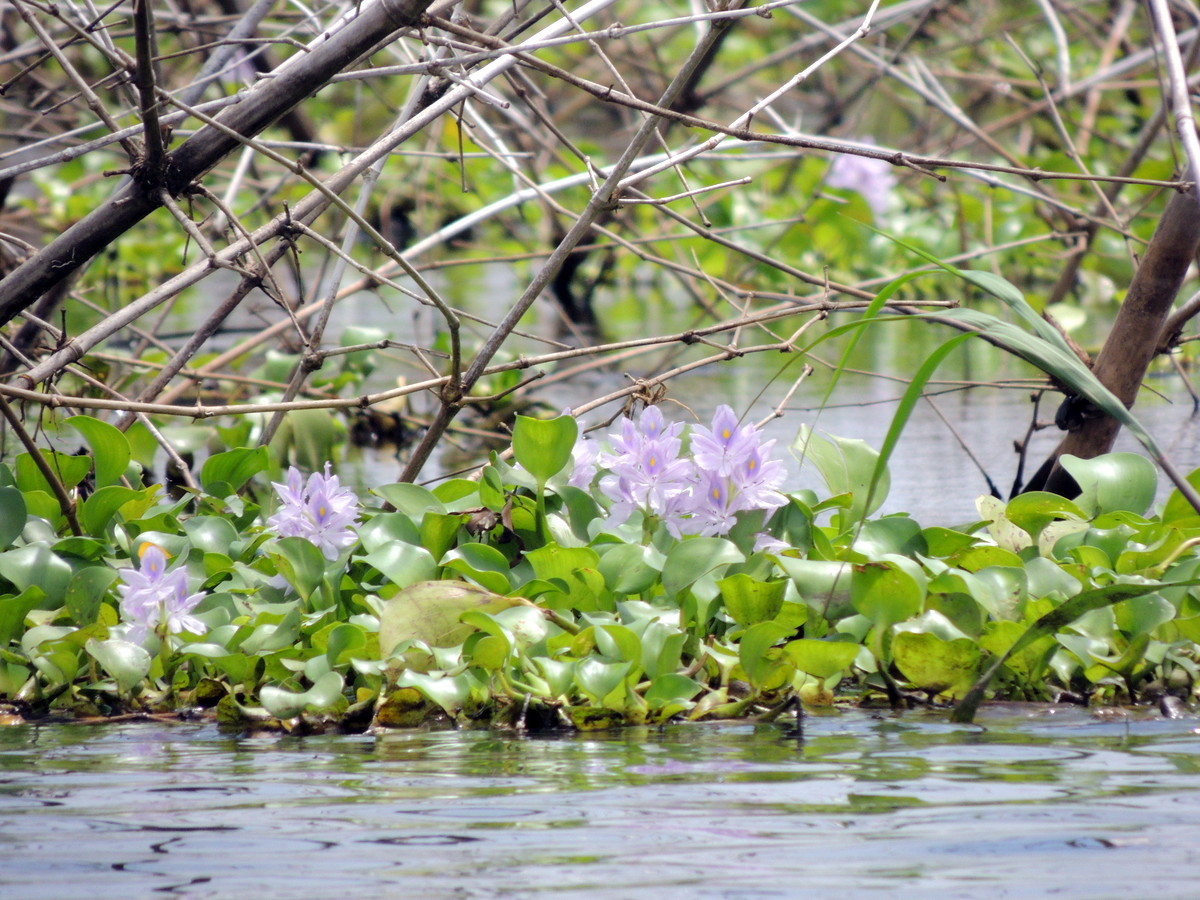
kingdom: Plantae
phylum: Tracheophyta
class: Liliopsida
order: Commelinales
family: Pontederiaceae
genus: Pontederia
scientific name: Pontederia crassipes
